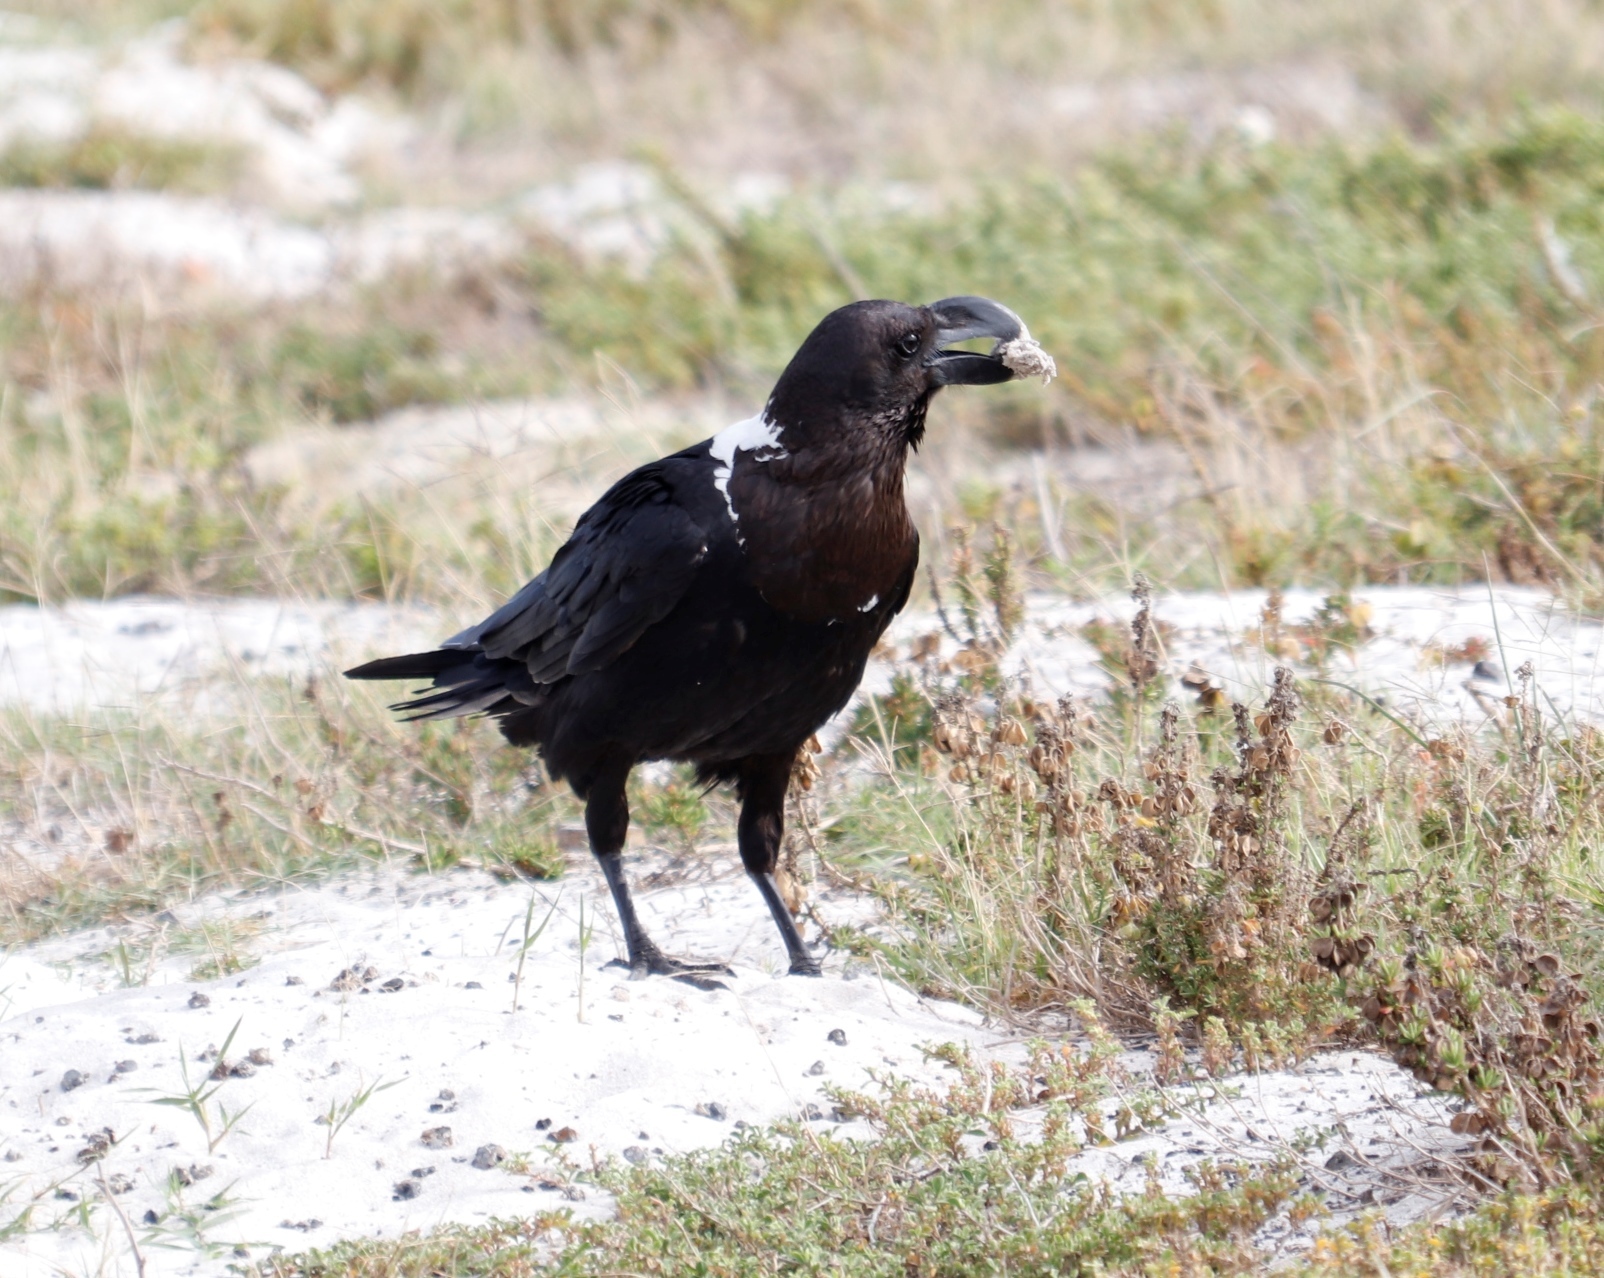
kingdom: Animalia
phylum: Chordata
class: Aves
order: Passeriformes
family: Corvidae
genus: Corvus
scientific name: Corvus albicollis
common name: White-necked raven
